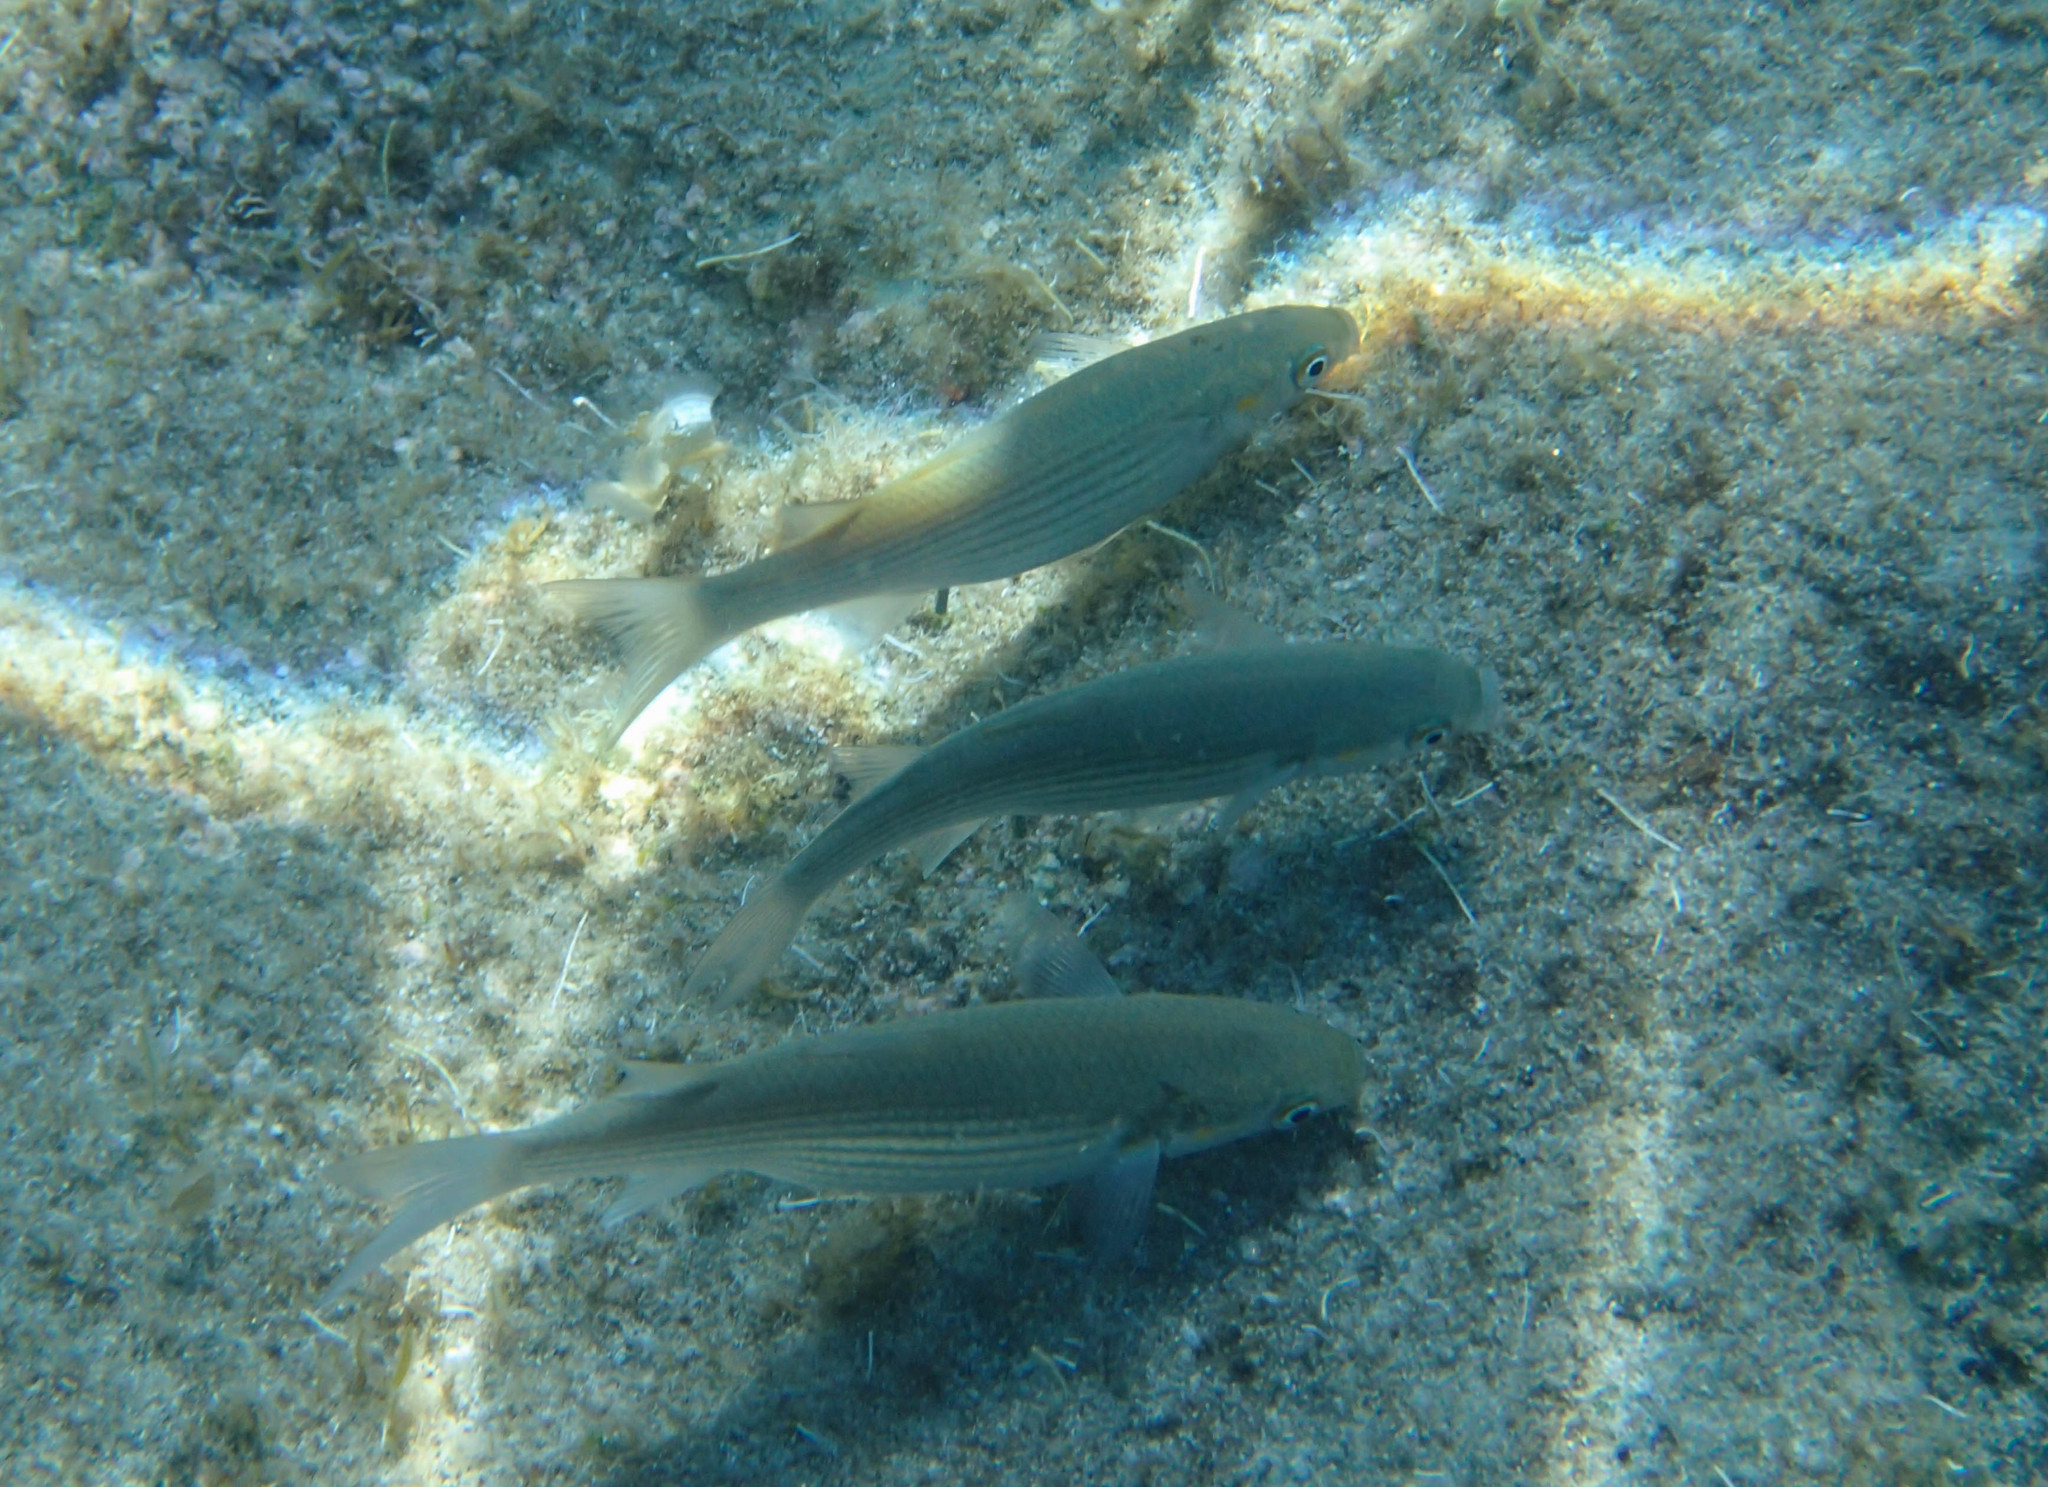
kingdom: Animalia
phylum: Chordata
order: Mugiliformes
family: Mugilidae
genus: Chelon
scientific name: Chelon
